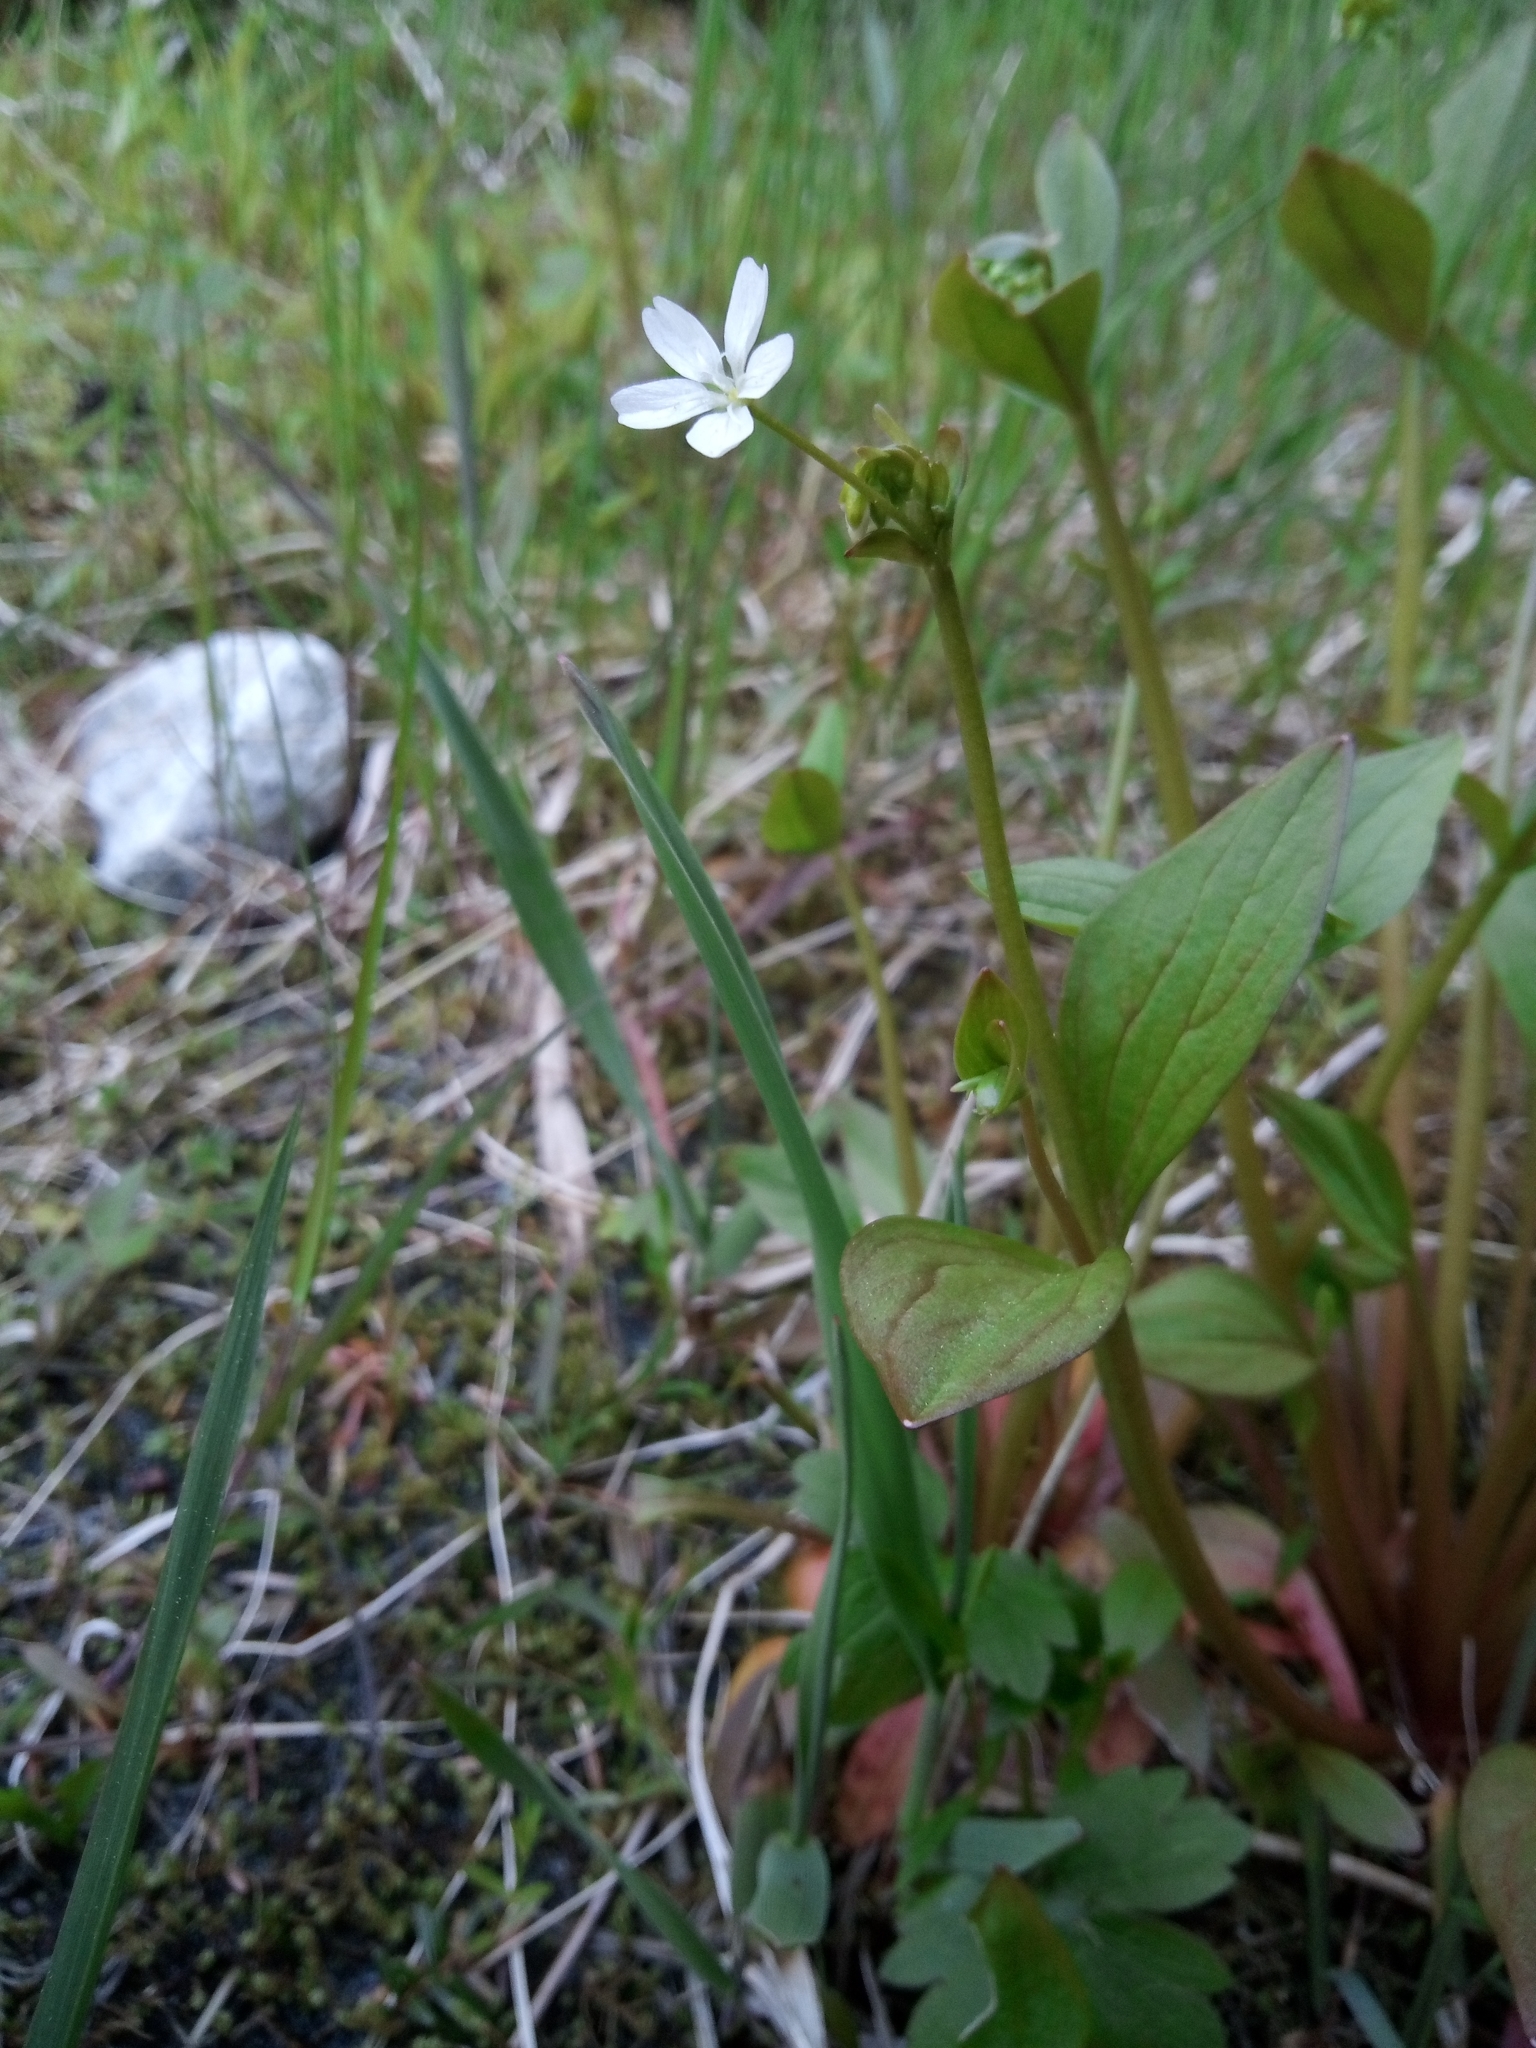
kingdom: Plantae
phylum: Tracheophyta
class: Magnoliopsida
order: Caryophyllales
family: Montiaceae
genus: Claytonia
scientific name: Claytonia sibirica
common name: Pink purslane
